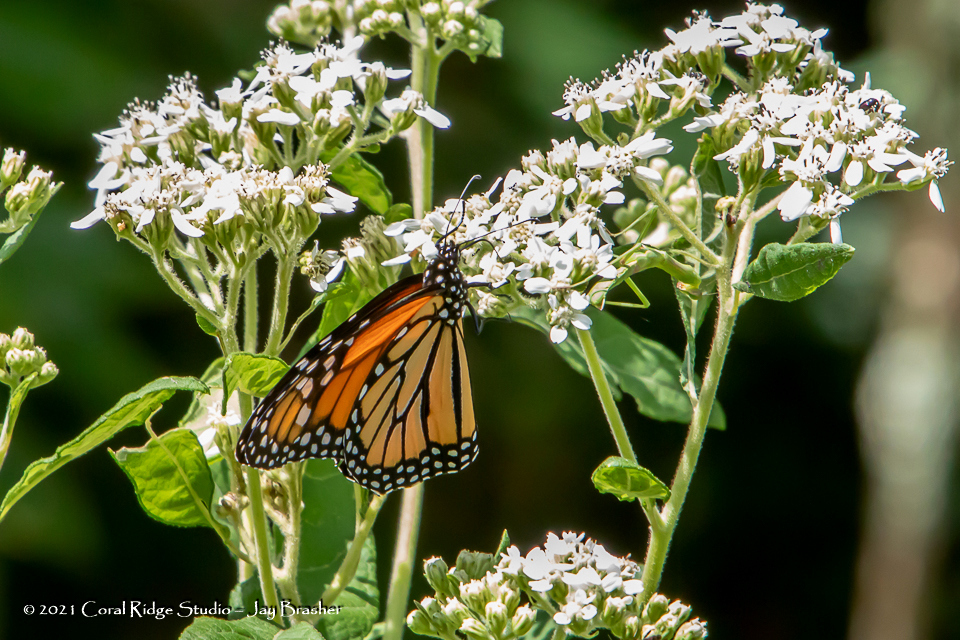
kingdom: Animalia
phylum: Arthropoda
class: Insecta
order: Lepidoptera
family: Nymphalidae
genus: Danaus
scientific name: Danaus plexippus
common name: Monarch
